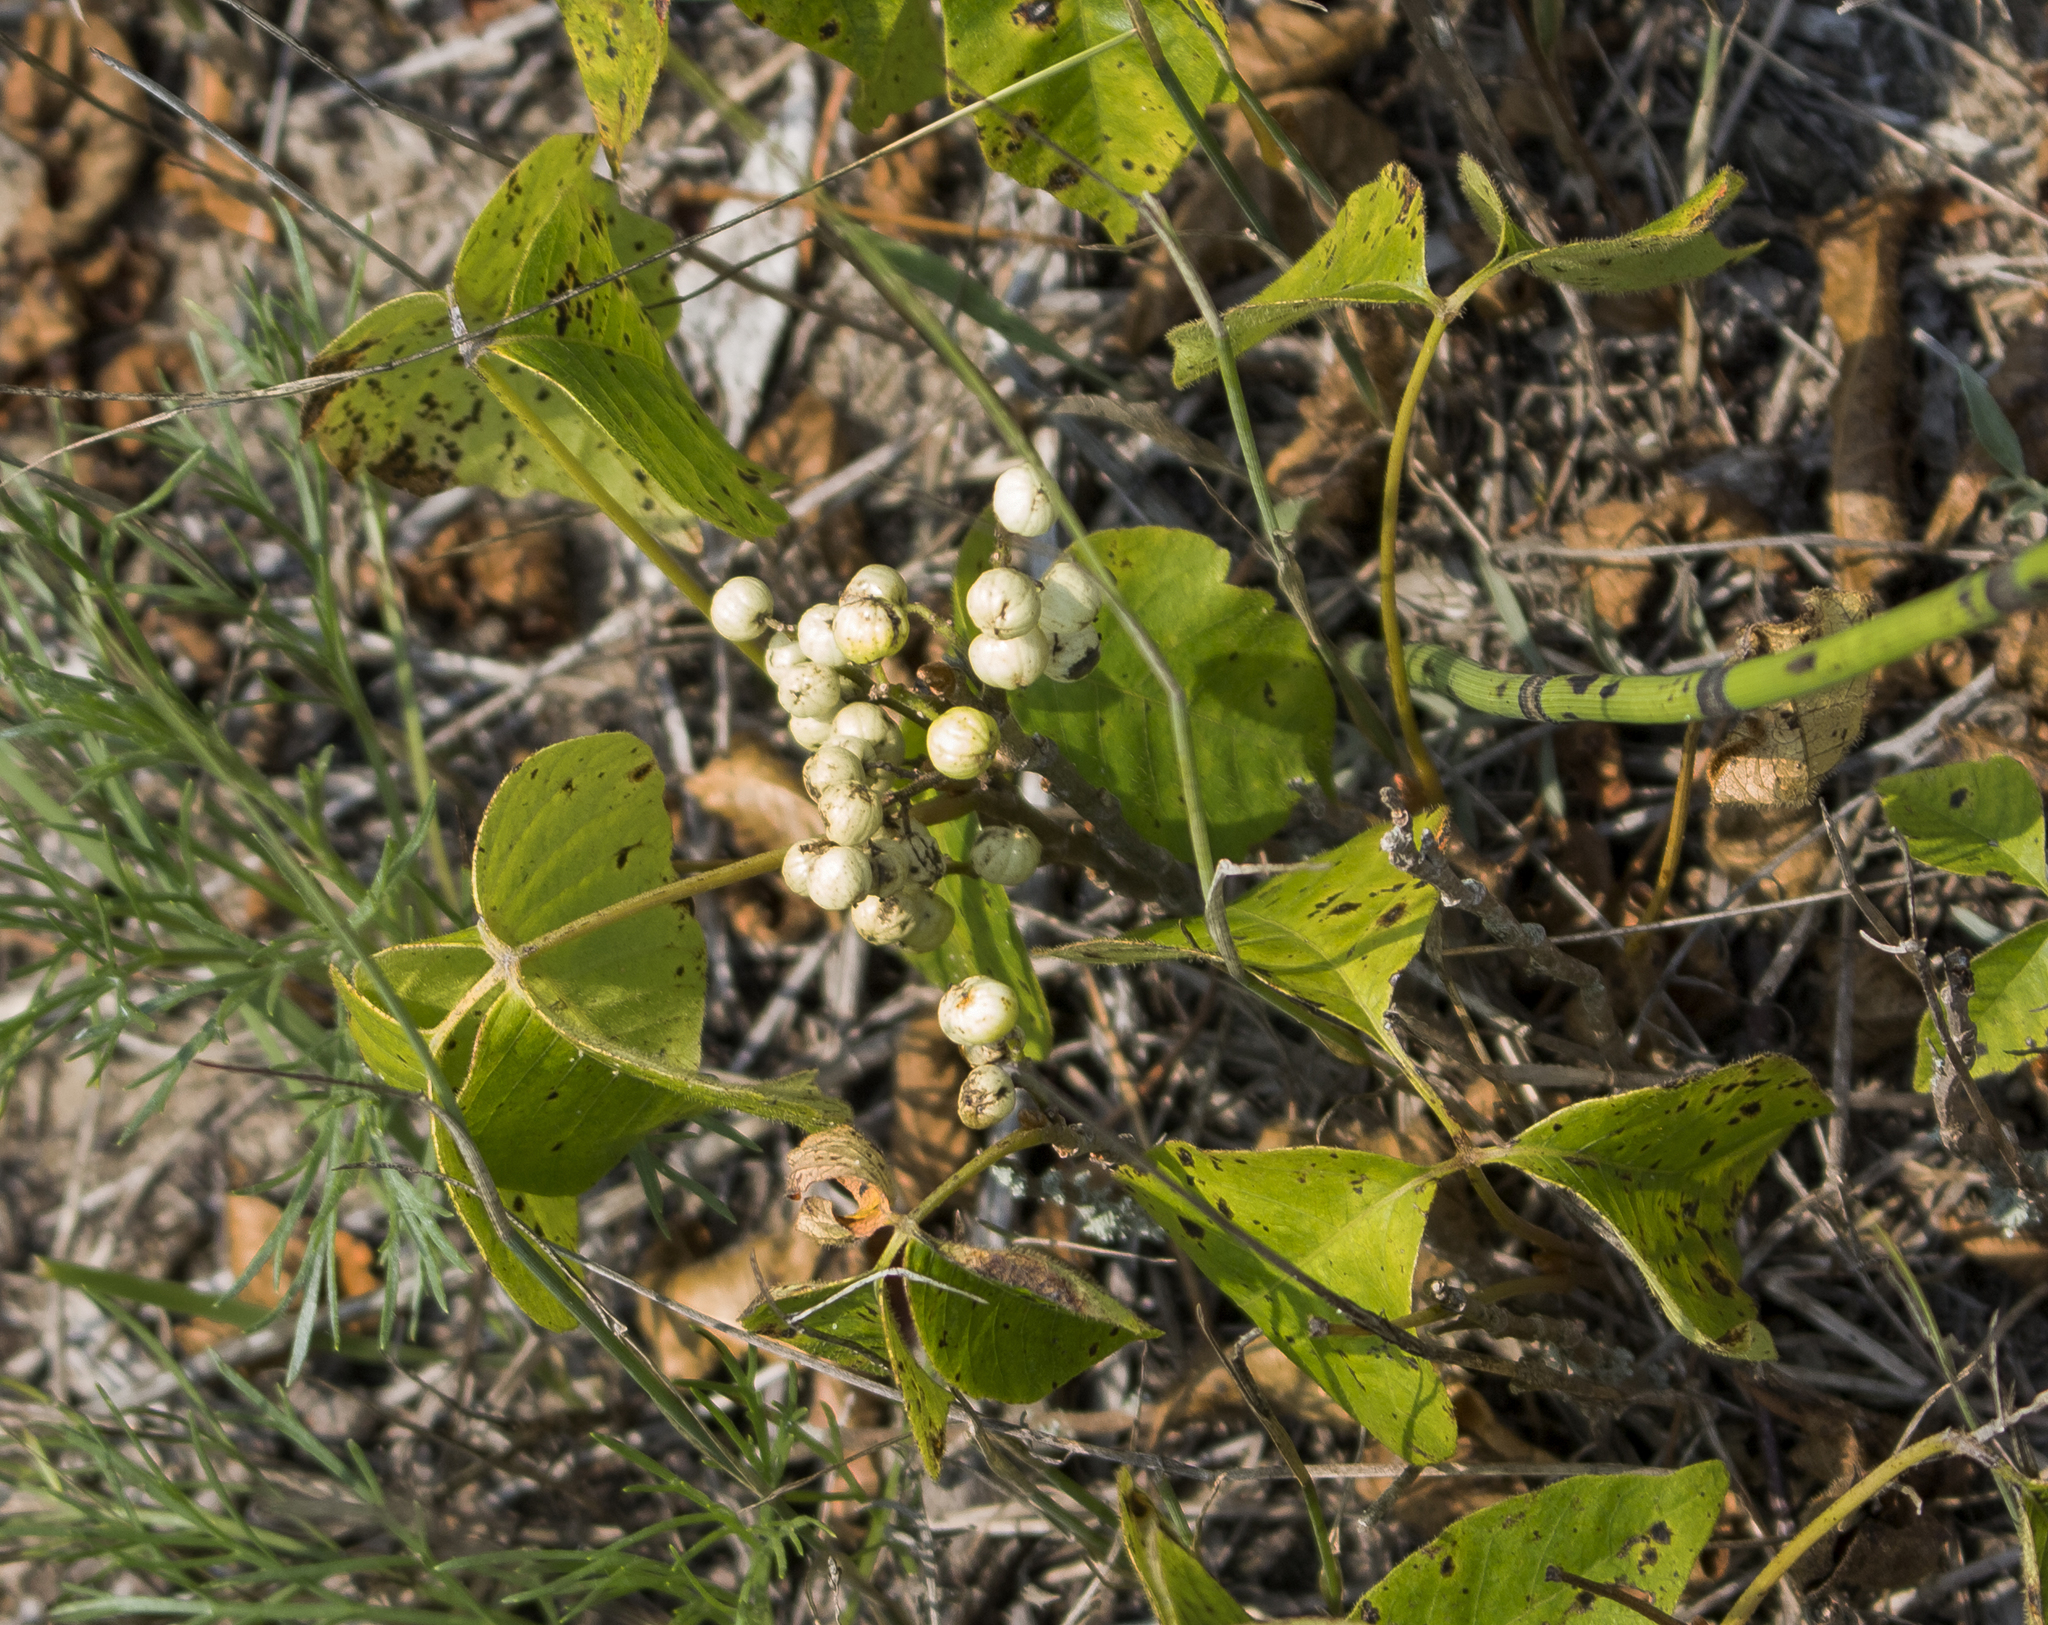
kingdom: Plantae
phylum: Tracheophyta
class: Magnoliopsida
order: Sapindales
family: Anacardiaceae
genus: Toxicodendron
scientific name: Toxicodendron rydbergii
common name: Rydberg's poison-ivy
